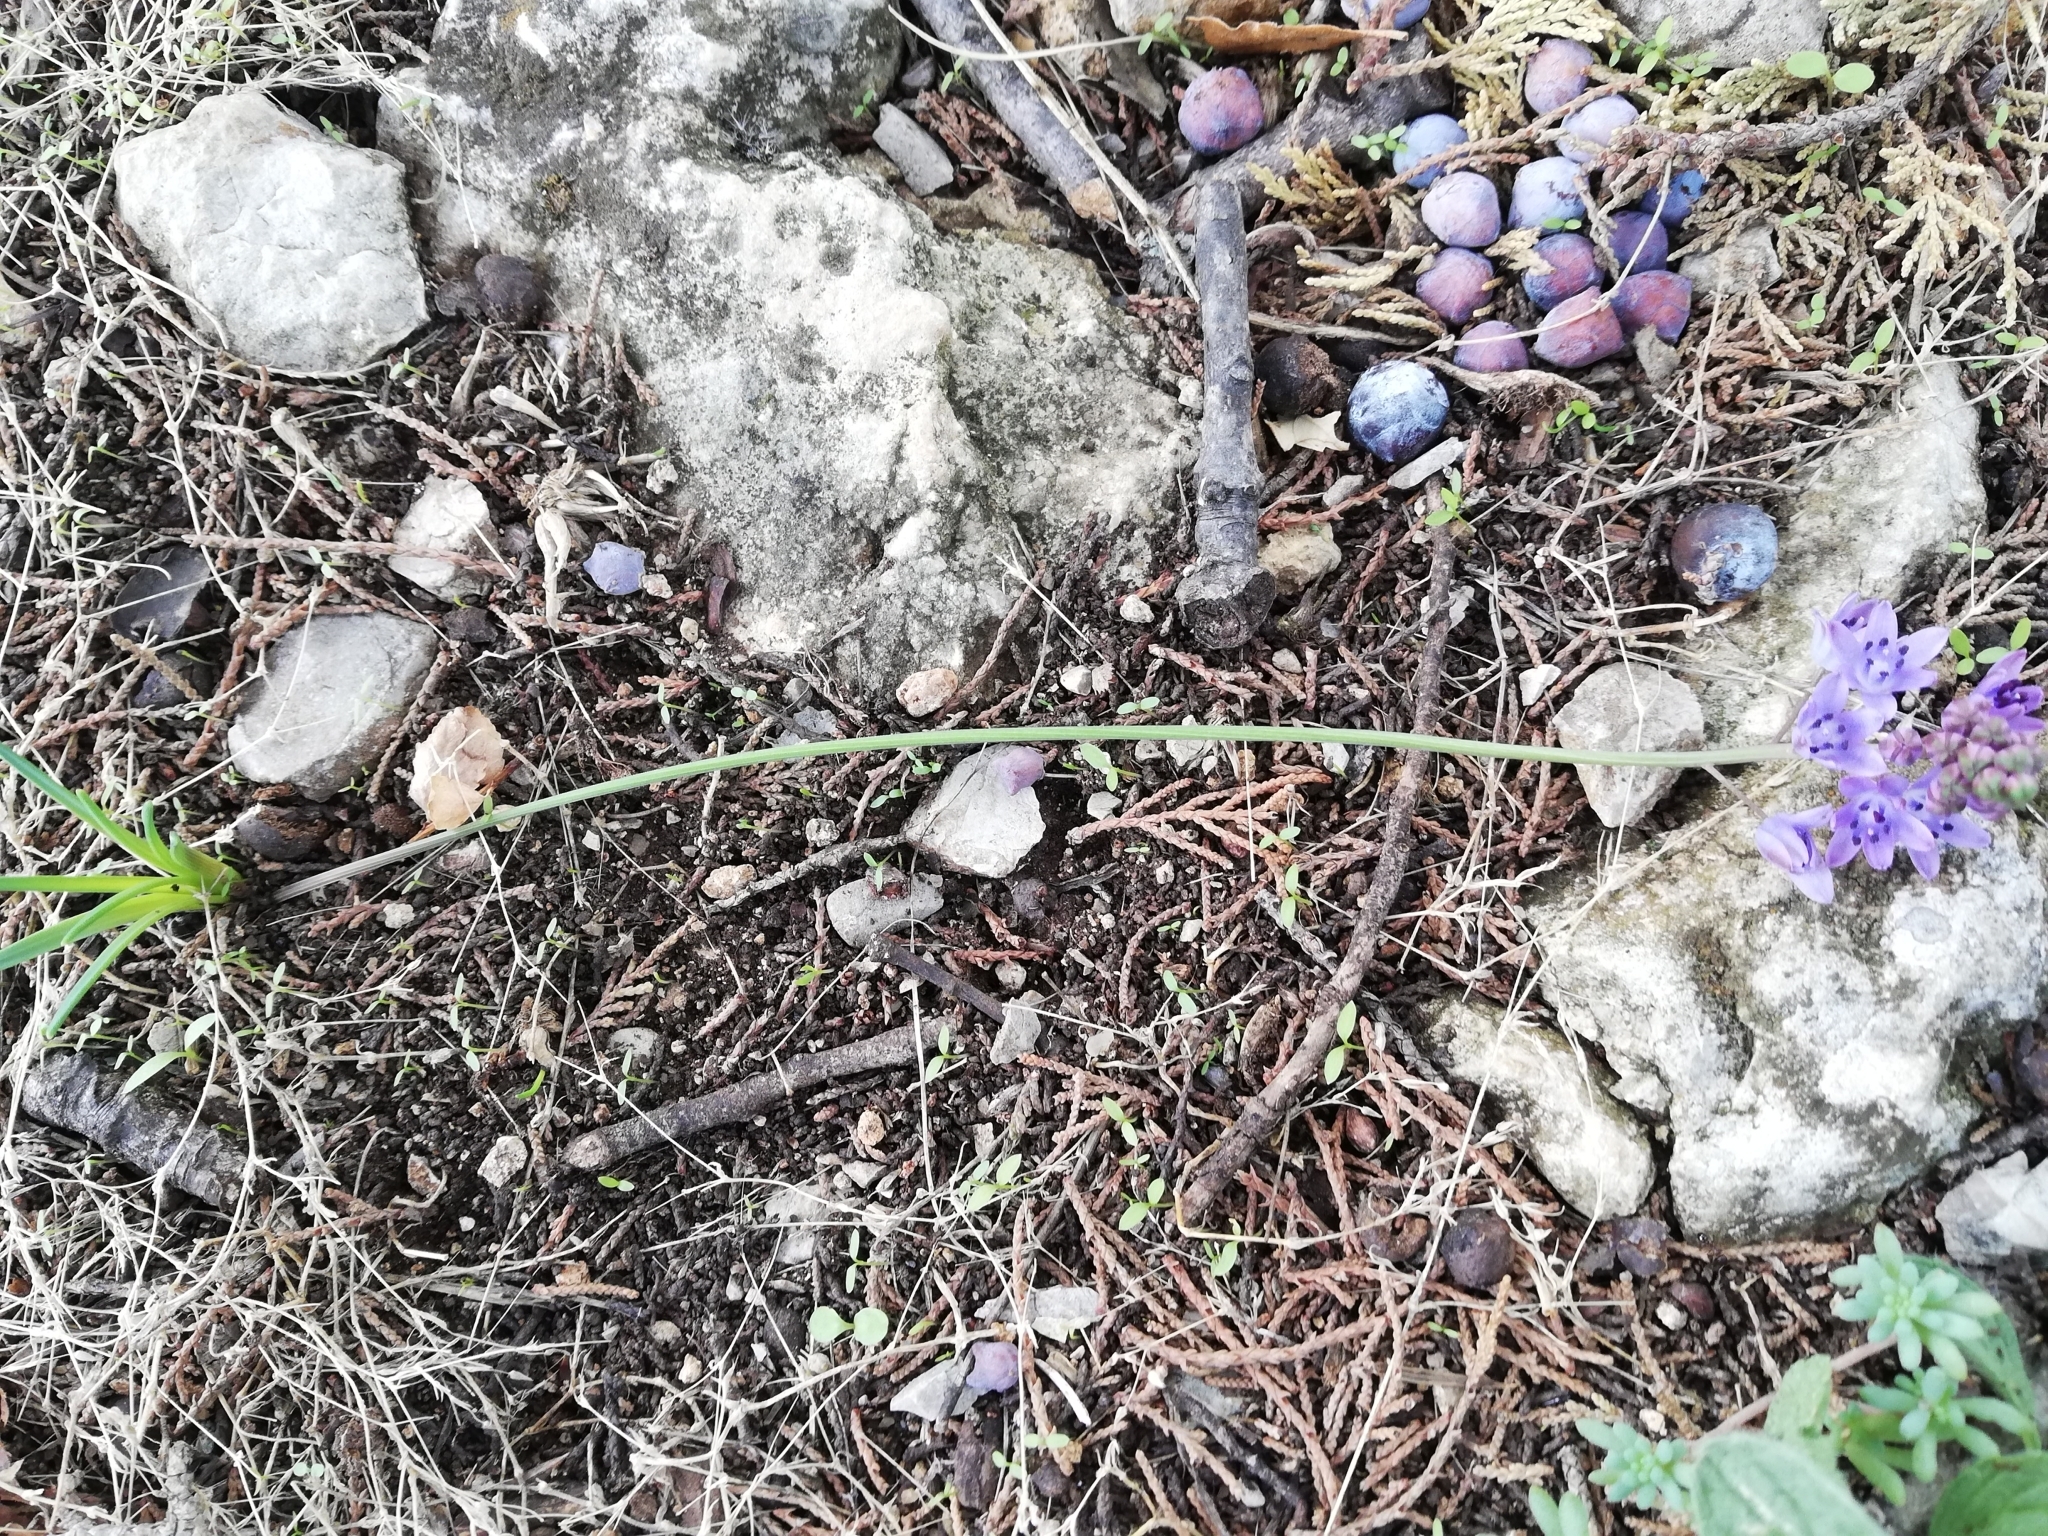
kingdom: Plantae
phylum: Tracheophyta
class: Liliopsida
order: Asparagales
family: Asparagaceae
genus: Prospero
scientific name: Prospero autumnale
